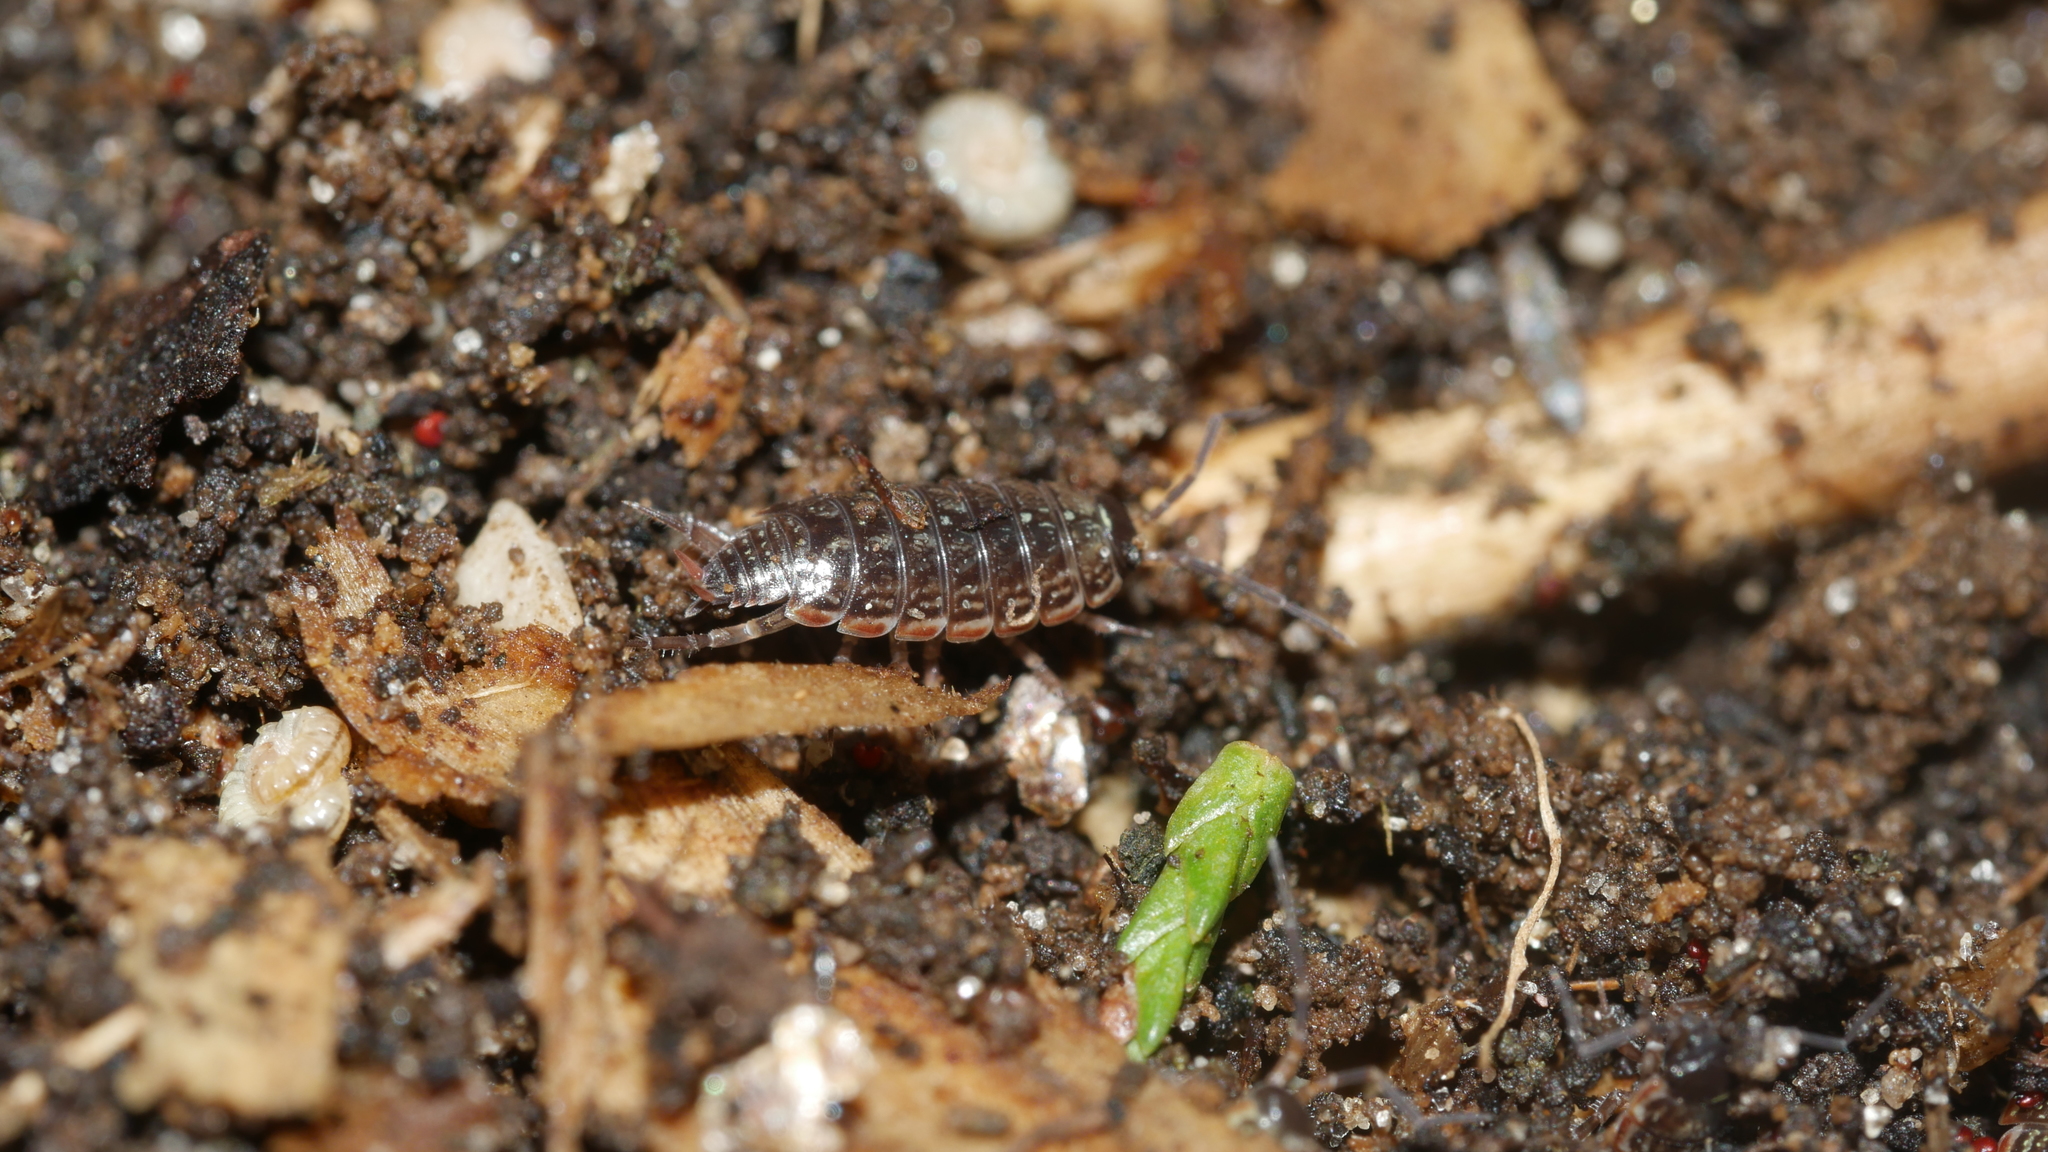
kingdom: Animalia
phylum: Arthropoda
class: Malacostraca
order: Isopoda
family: Philosciidae
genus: Philoscia
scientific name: Philoscia muscorum
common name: Common striped woodlouse
